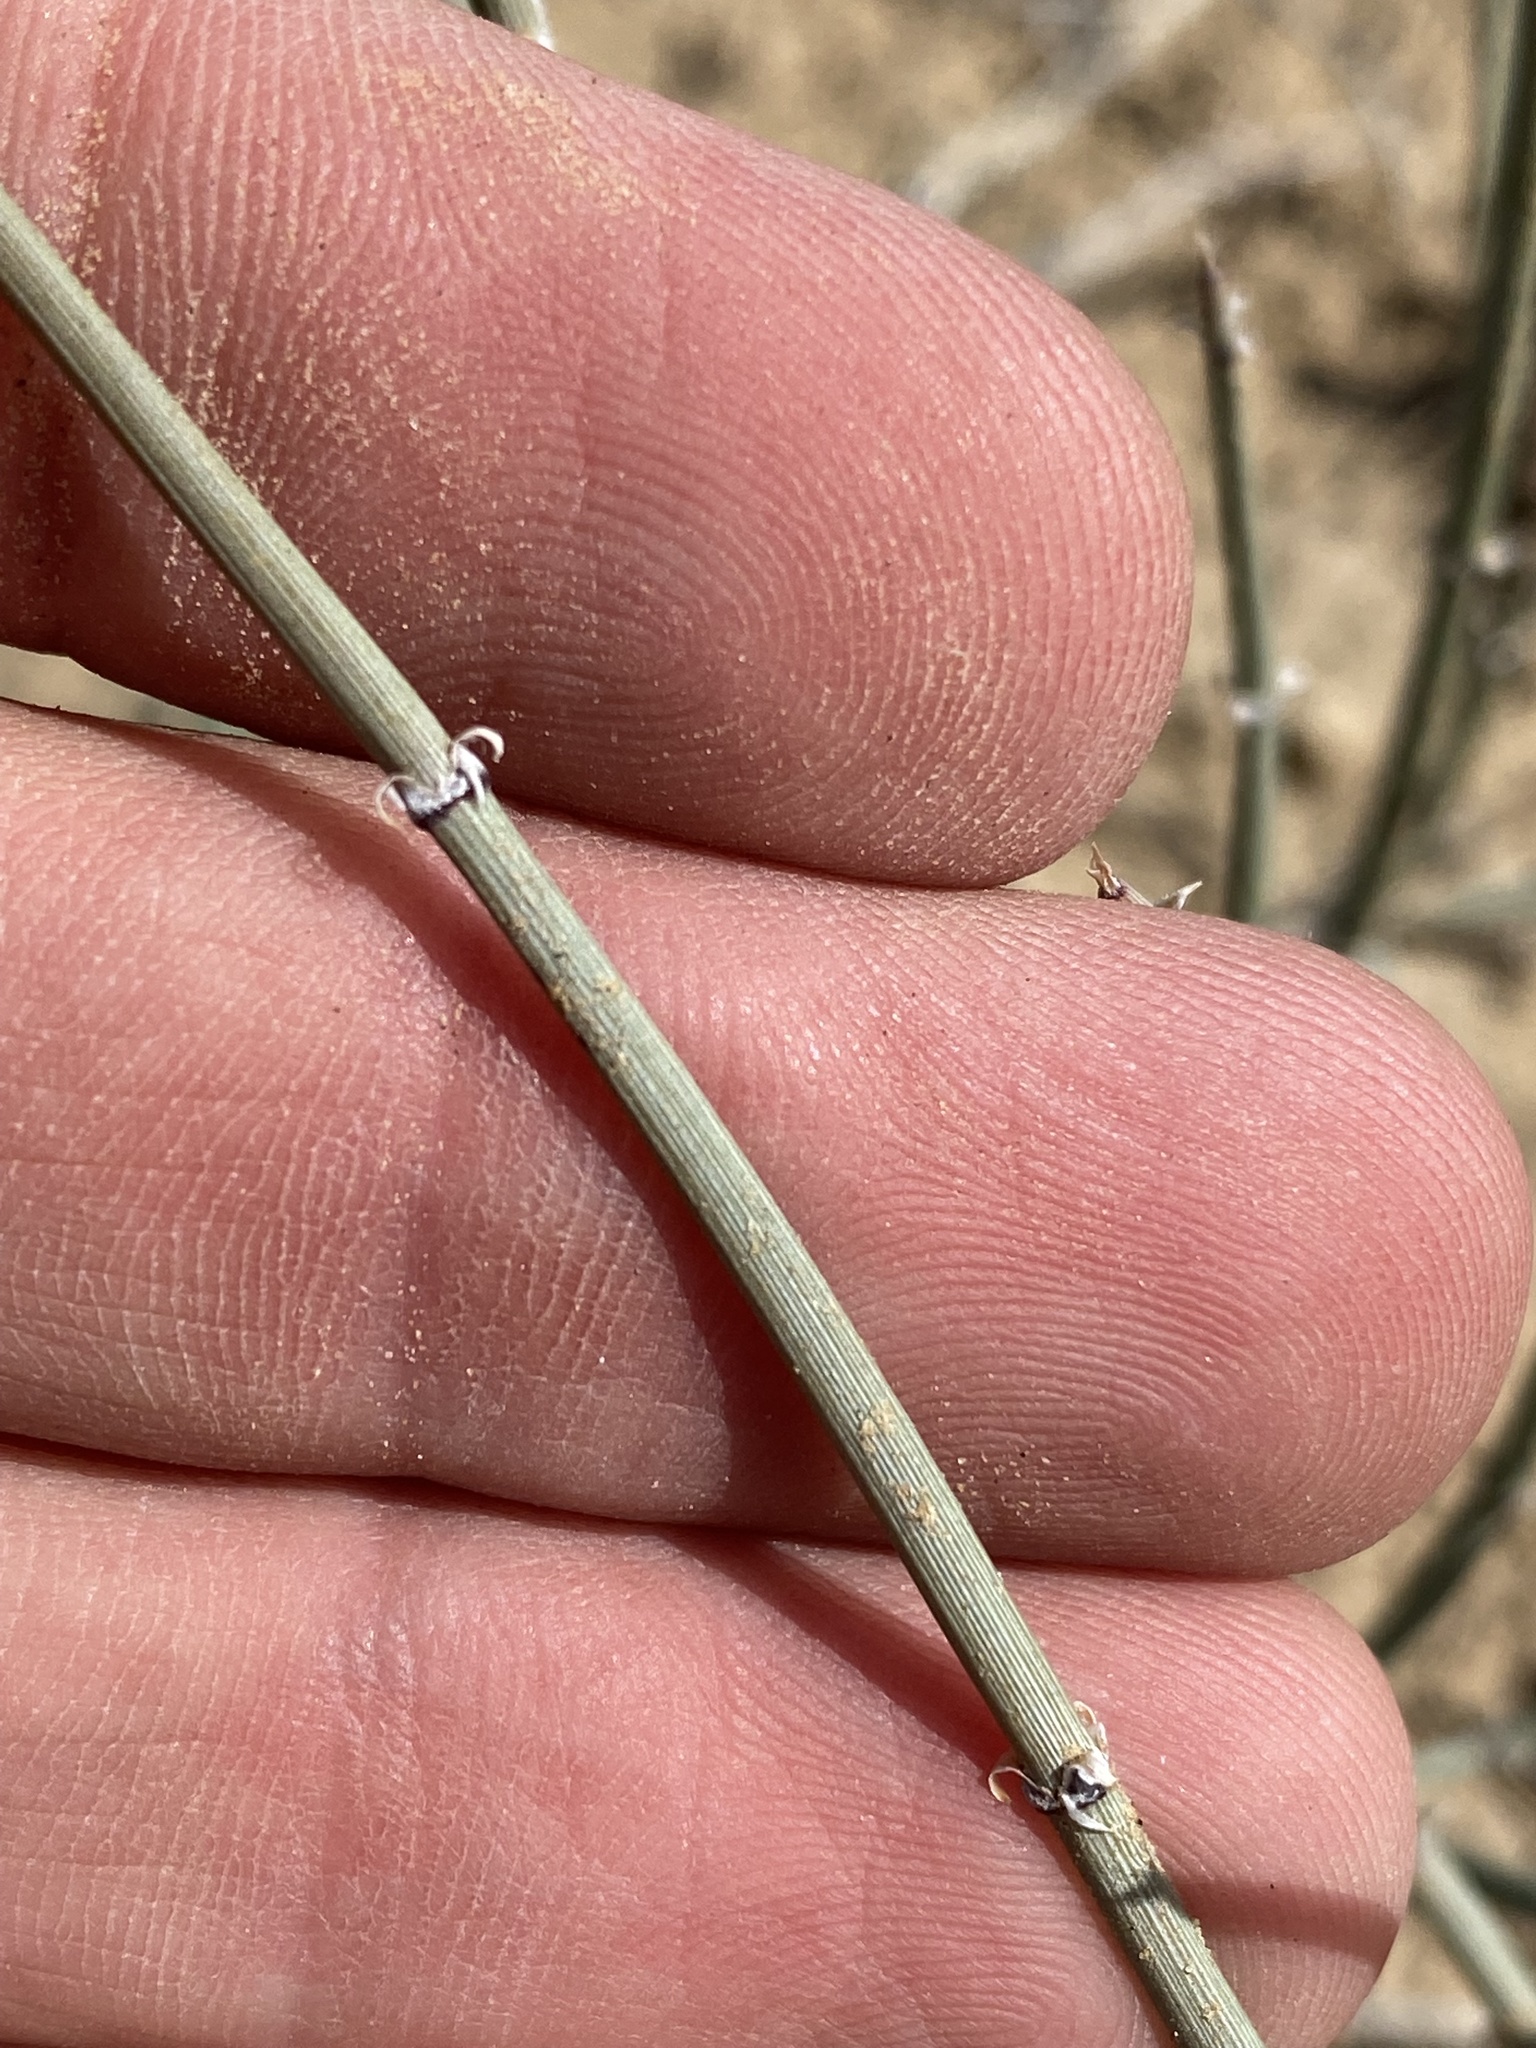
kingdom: Plantae
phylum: Tracheophyta
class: Gnetopsida
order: Ephedrales
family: Ephedraceae
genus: Ephedra
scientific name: Ephedra torreyana
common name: Torrey ephedra
